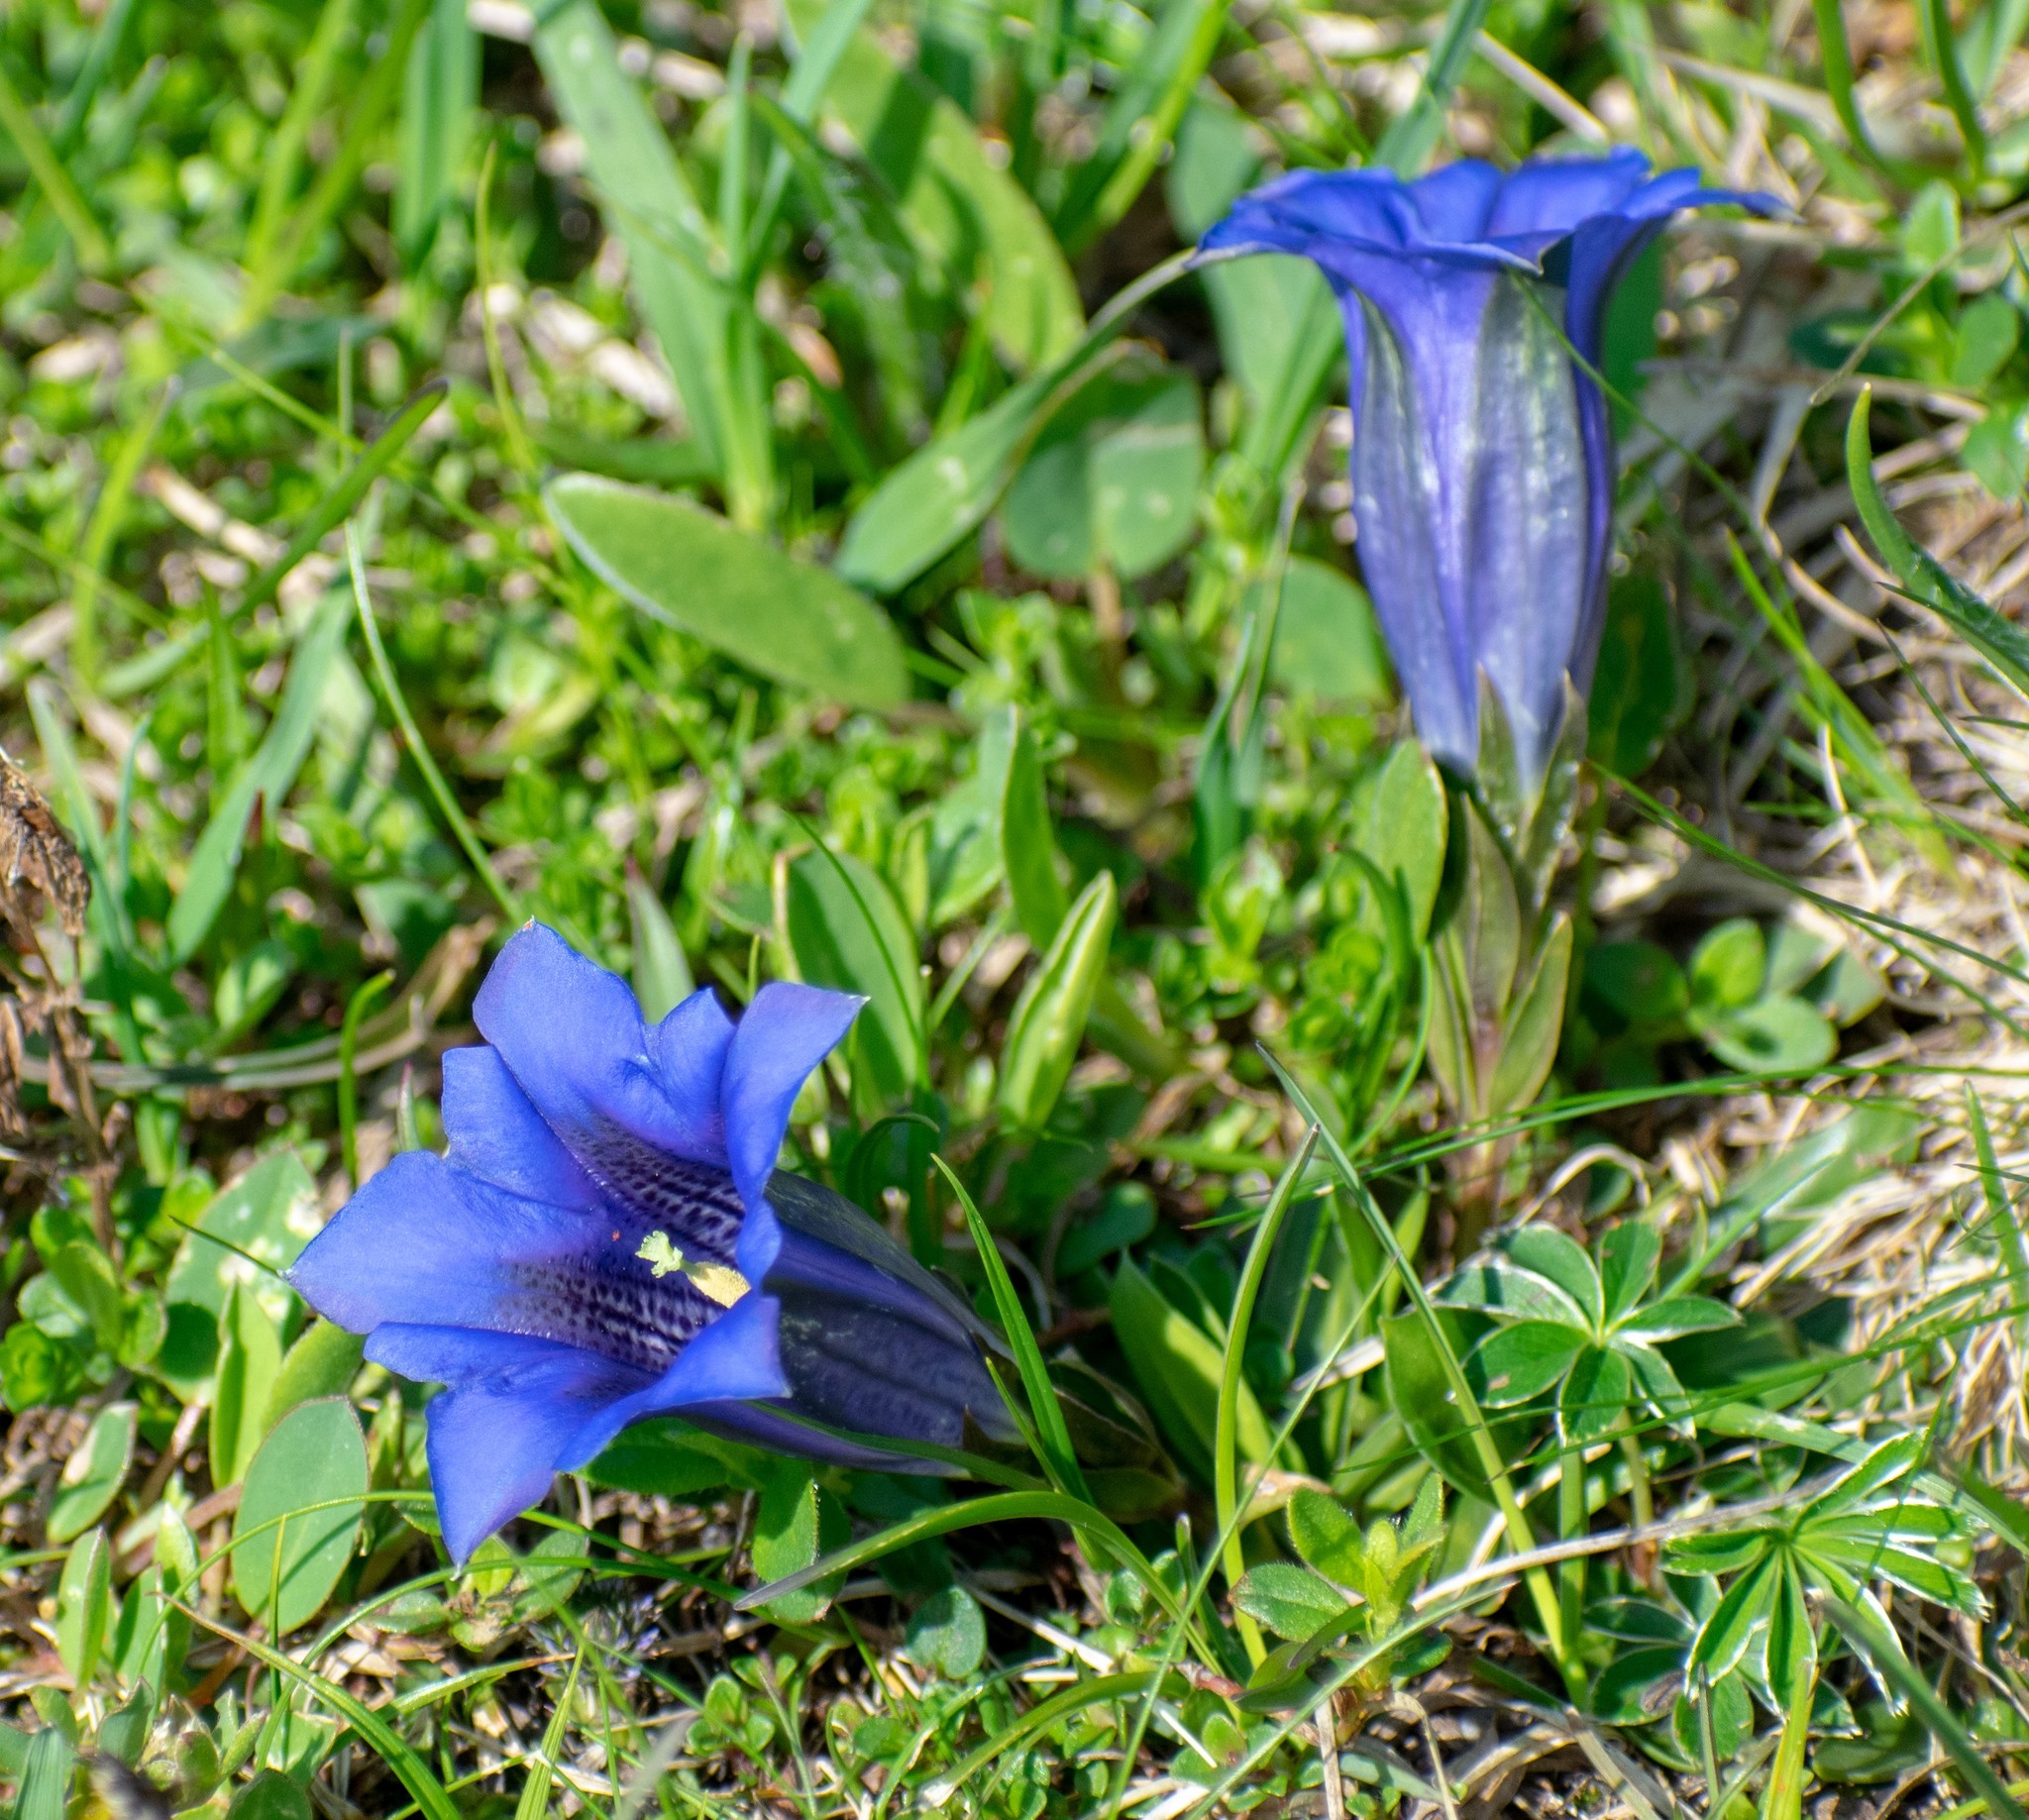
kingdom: Plantae
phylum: Tracheophyta
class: Magnoliopsida
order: Gentianales
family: Gentianaceae
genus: Gentiana
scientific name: Gentiana clusii
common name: Trumpet gentian
